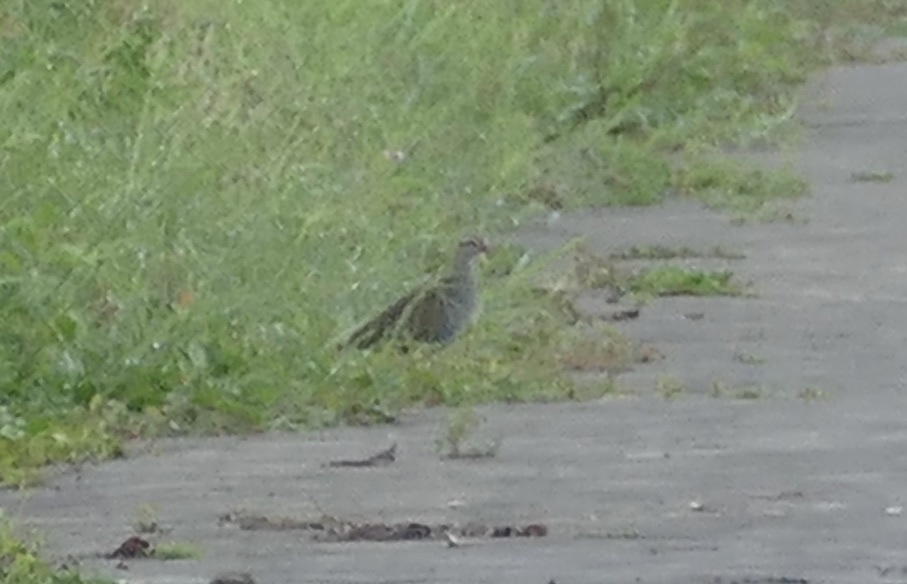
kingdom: Animalia
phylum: Chordata
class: Aves
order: Gruiformes
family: Rallidae
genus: Gallirallus
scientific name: Gallirallus philippensis
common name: Buff-banded rail
